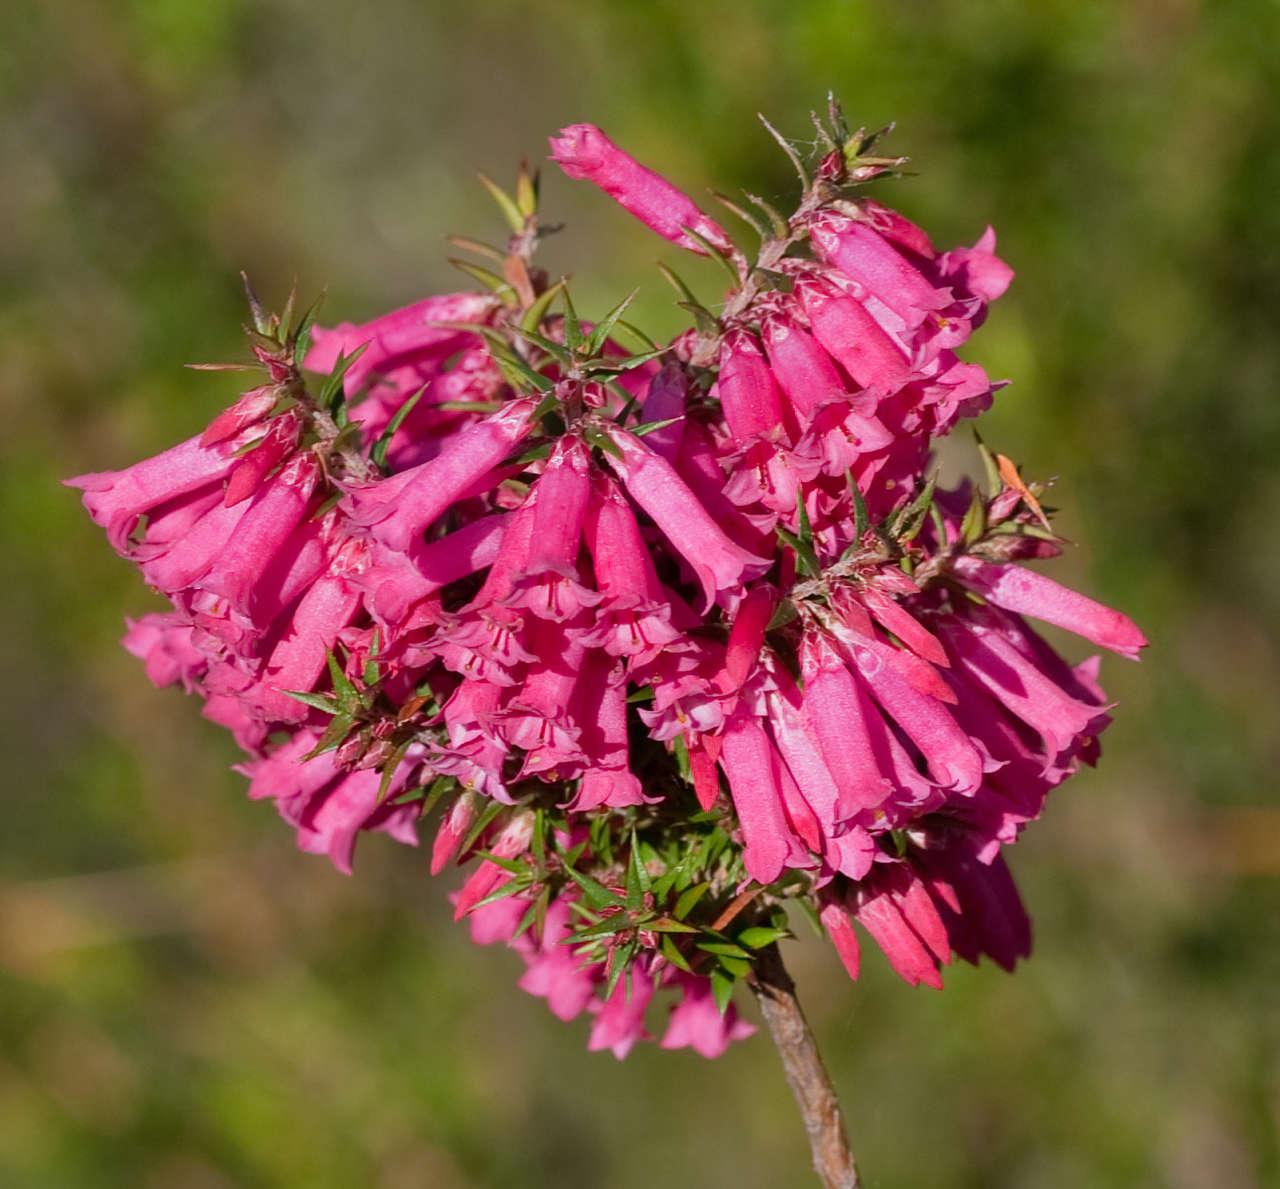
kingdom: Plantae
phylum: Tracheophyta
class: Magnoliopsida
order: Ericales
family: Ericaceae
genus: Epacris
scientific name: Epacris impressa
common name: Common-heath
